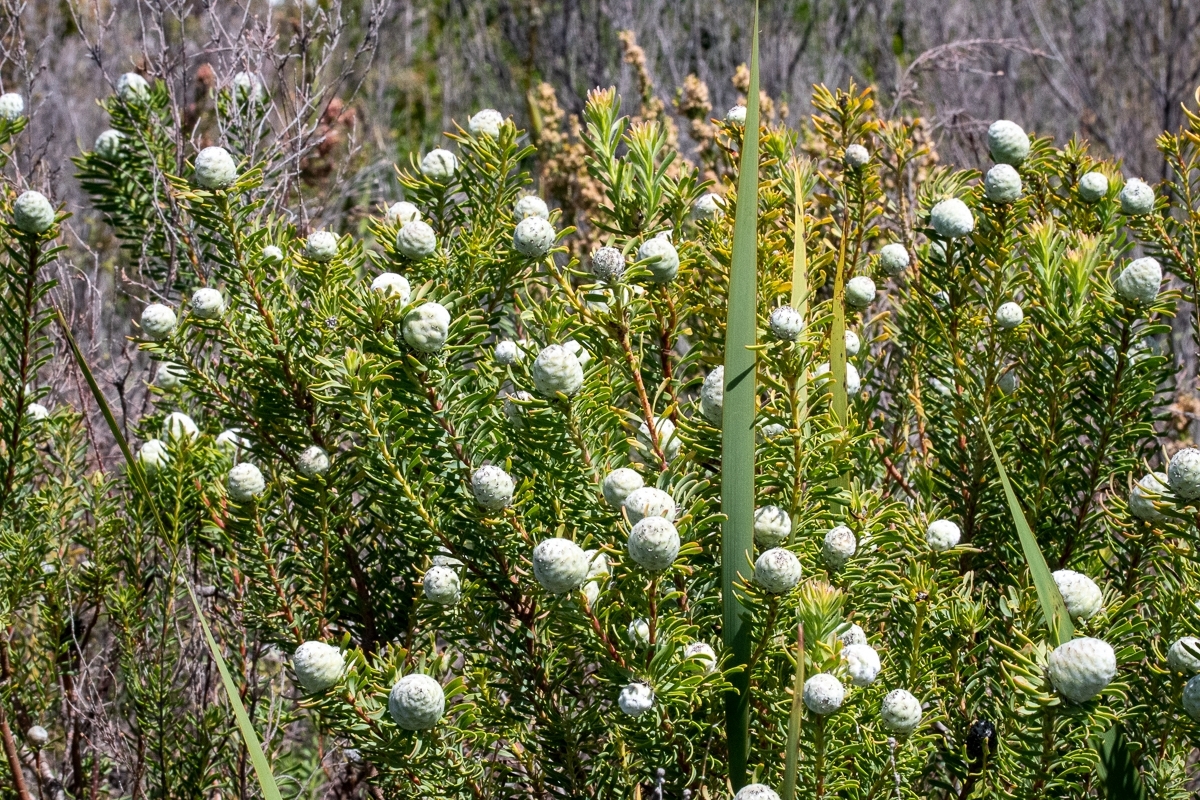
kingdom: Plantae
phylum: Tracheophyta
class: Magnoliopsida
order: Proteales
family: Proteaceae
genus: Leucadendron
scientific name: Leucadendron linifolium
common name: Line-leaf conebush
